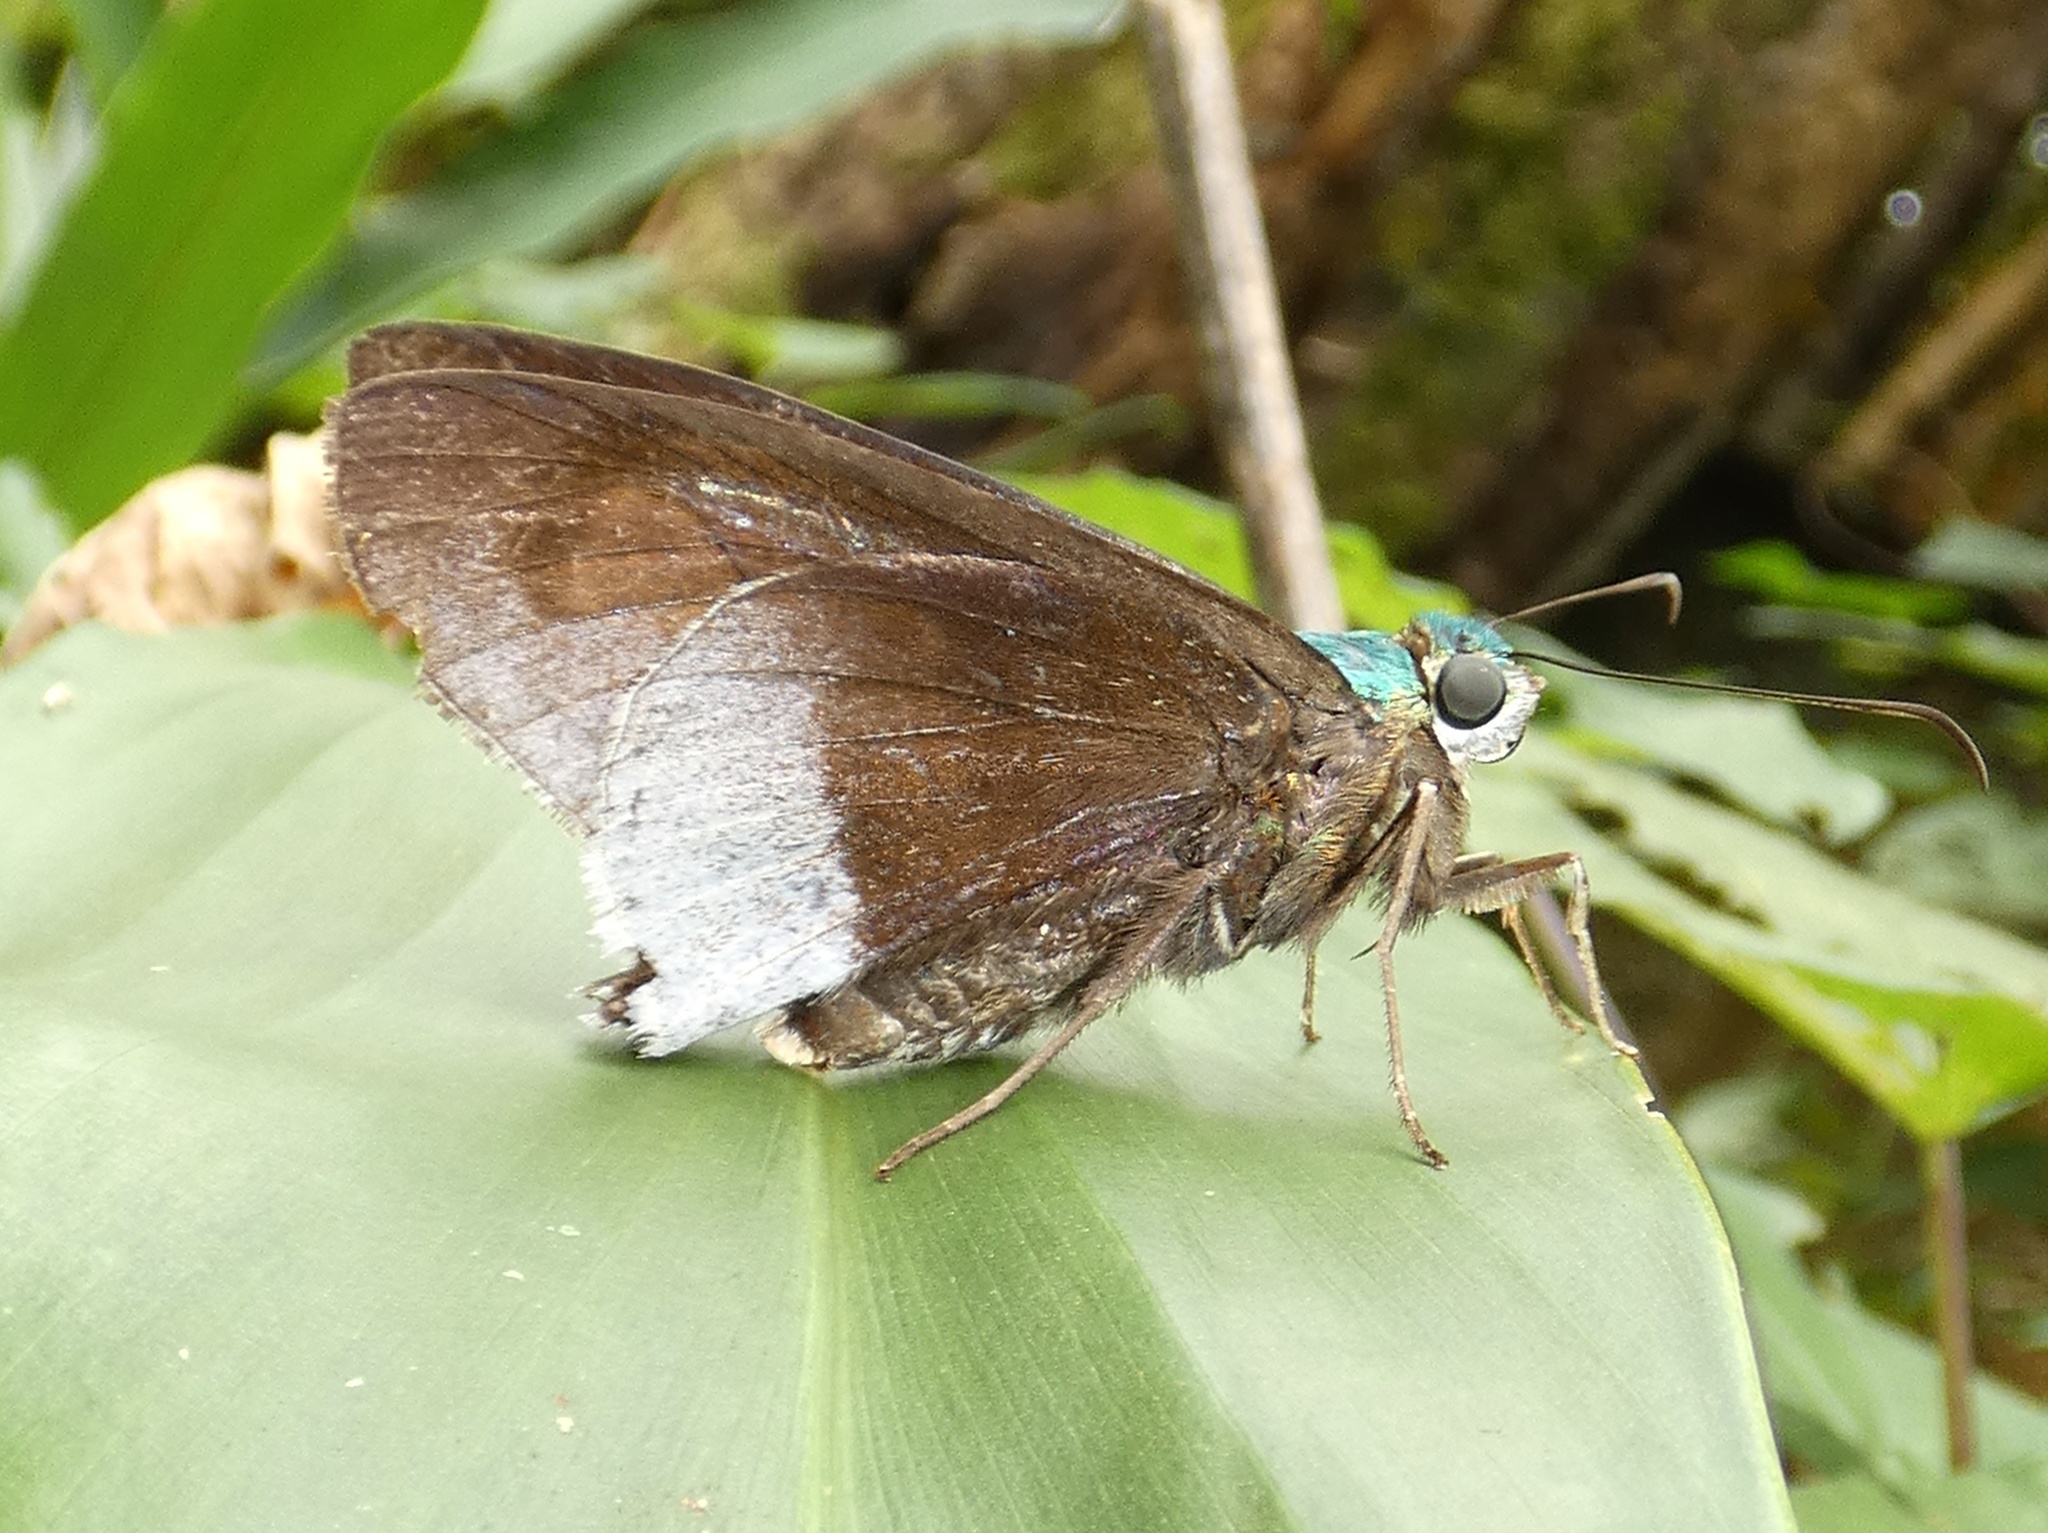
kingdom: Animalia
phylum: Arthropoda
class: Insecta
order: Lepidoptera
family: Hesperiidae
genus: Astraptes
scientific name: Astraptes alardus
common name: Frosted flasher
